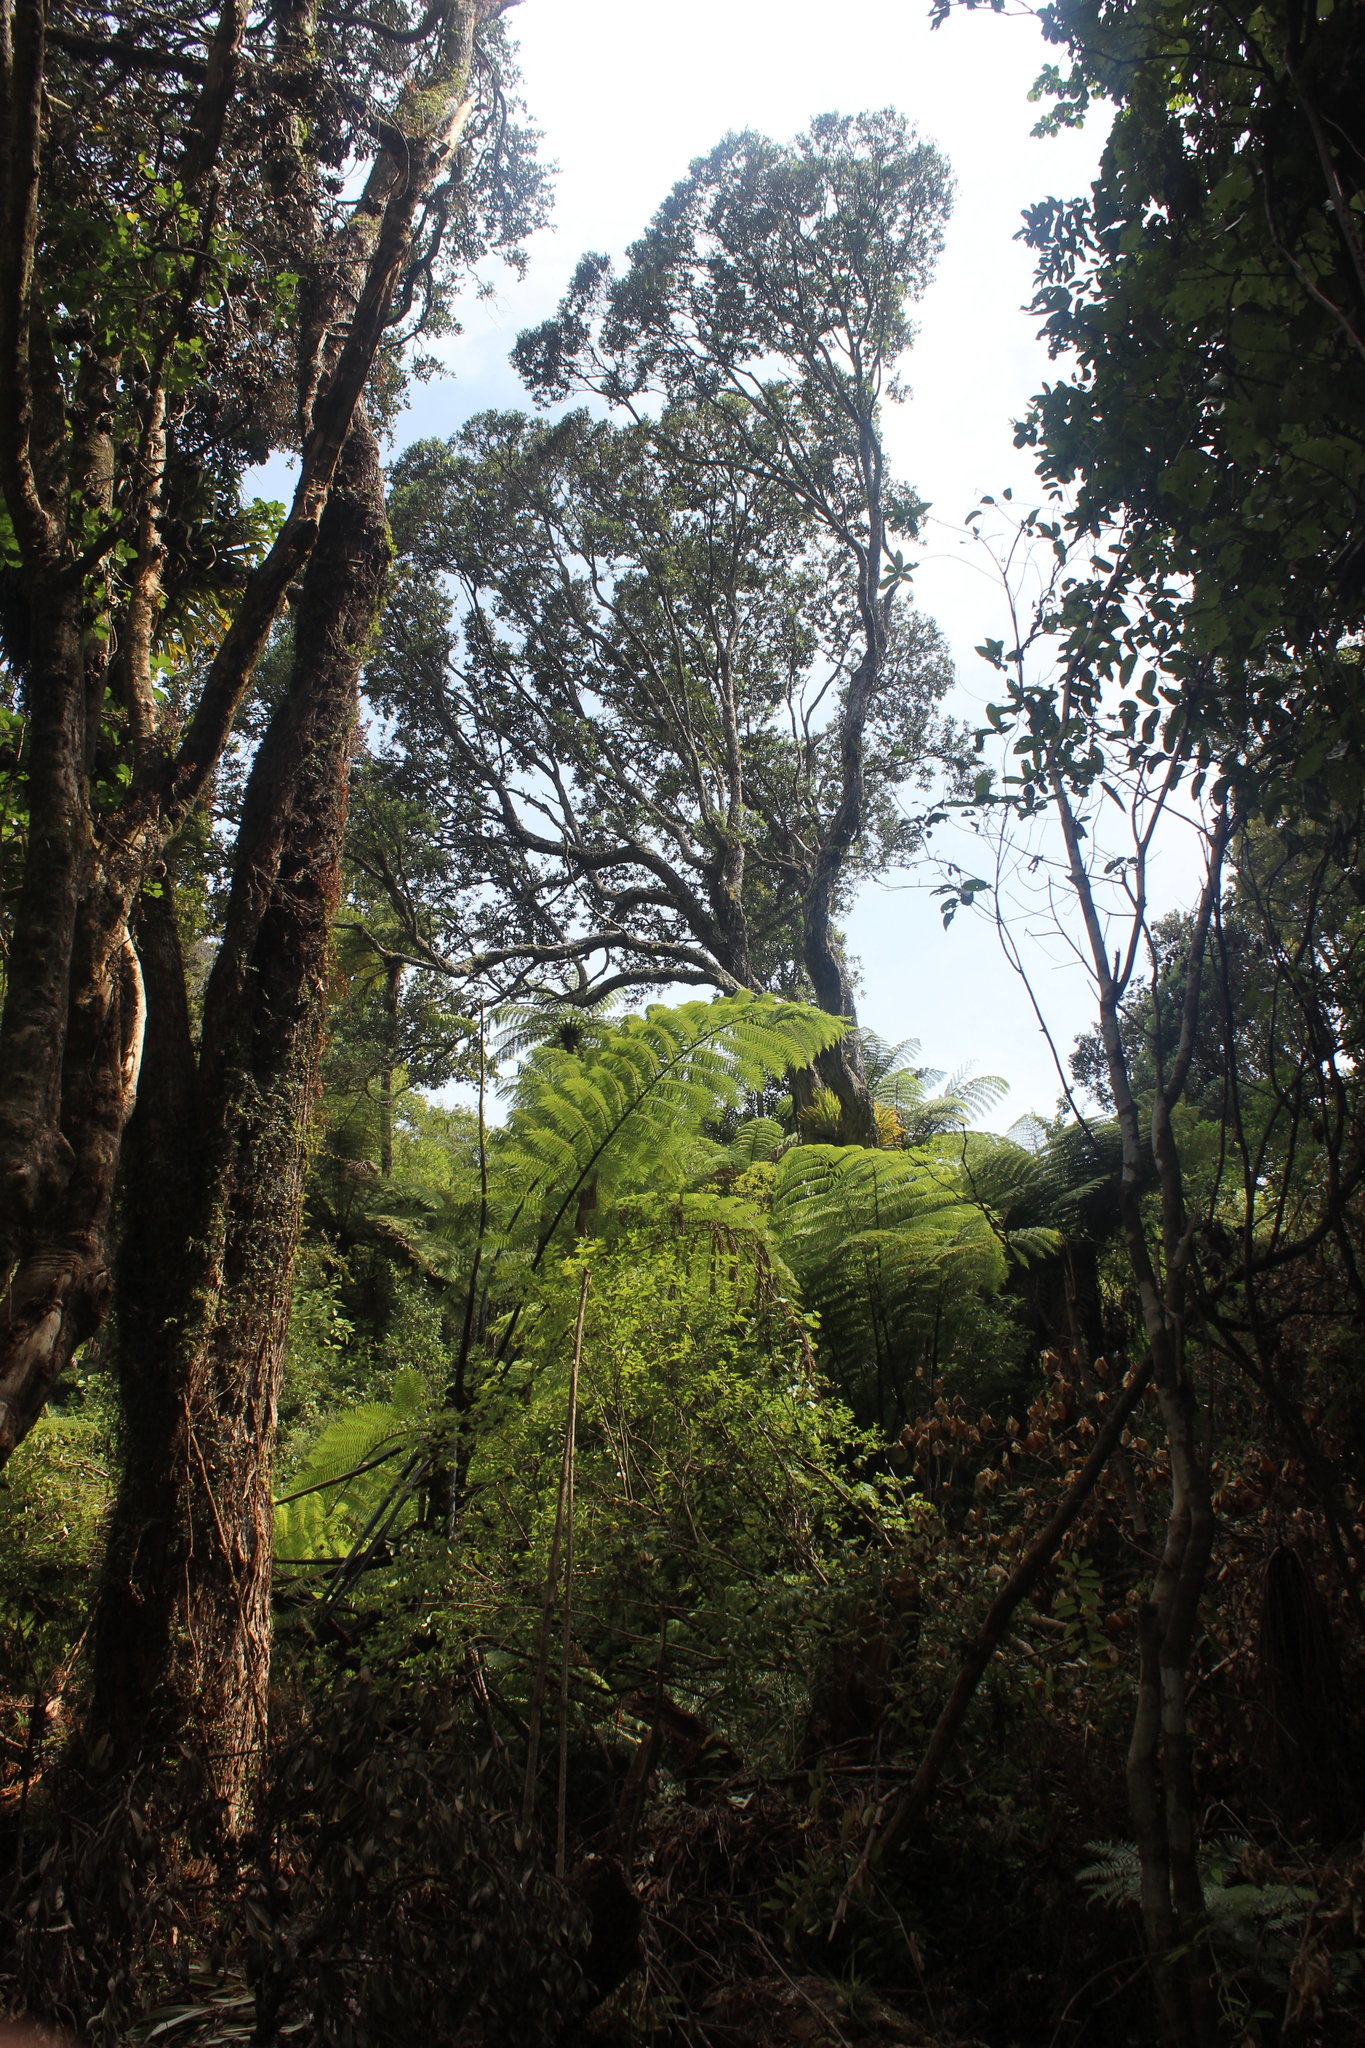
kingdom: Plantae
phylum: Tracheophyta
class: Magnoliopsida
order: Myrtales
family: Myrtaceae
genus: Metrosideros
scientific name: Metrosideros excelsa
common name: New zealand christmastree
